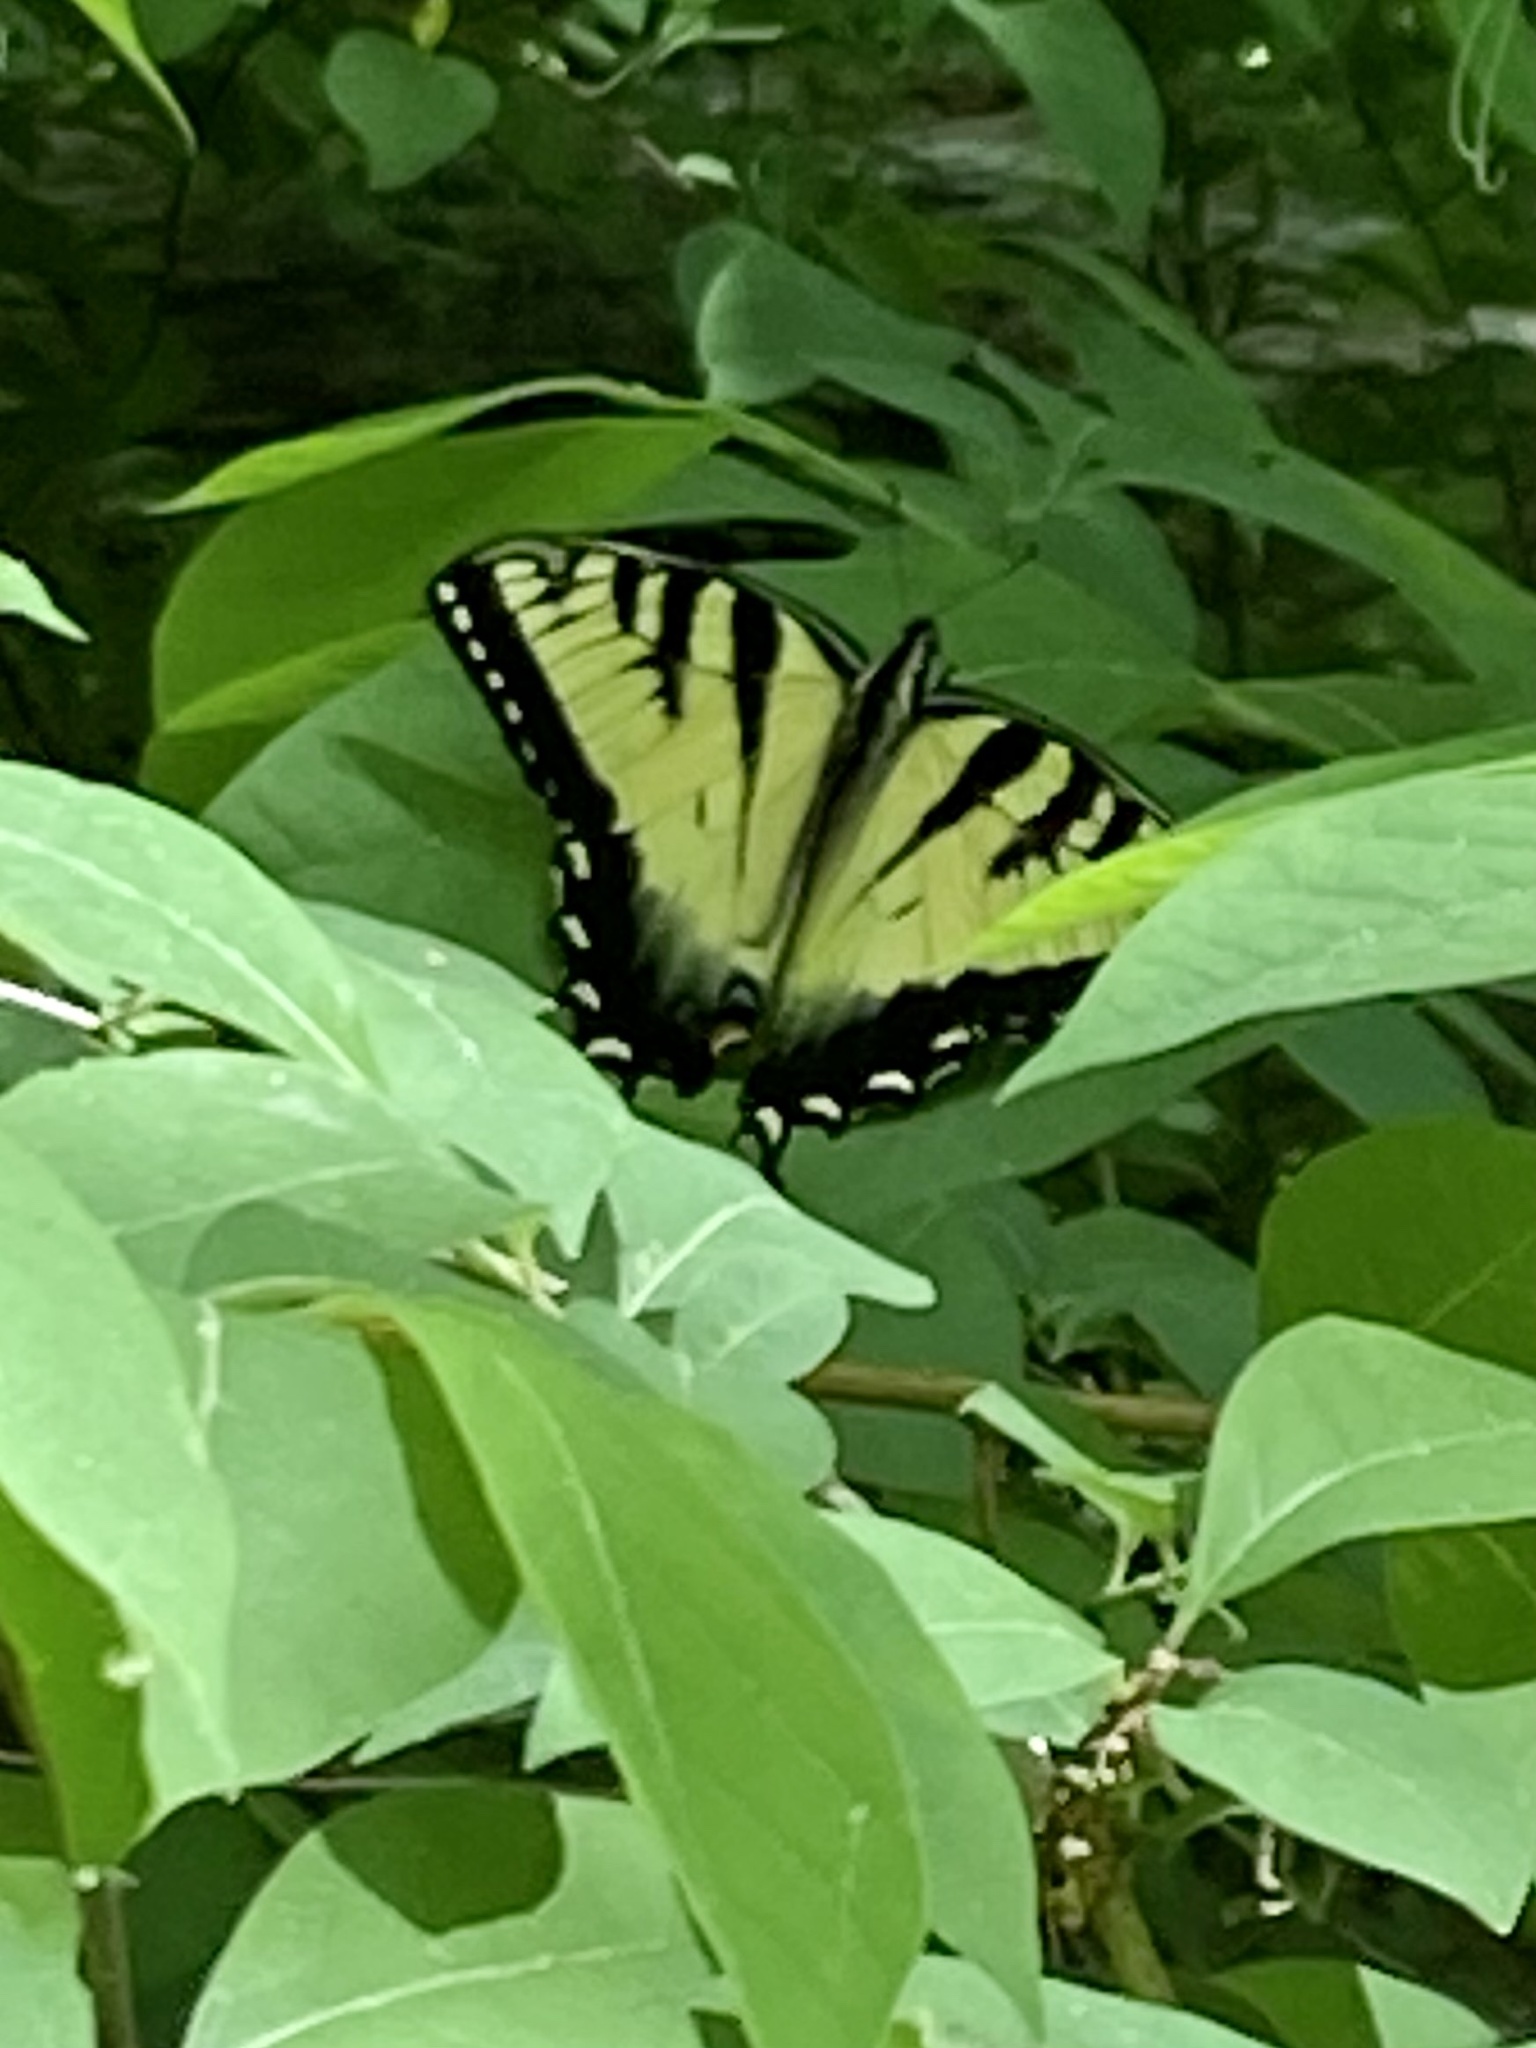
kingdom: Animalia
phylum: Arthropoda
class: Insecta
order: Lepidoptera
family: Papilionidae
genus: Papilio
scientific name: Papilio glaucus
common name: Tiger swallowtail
